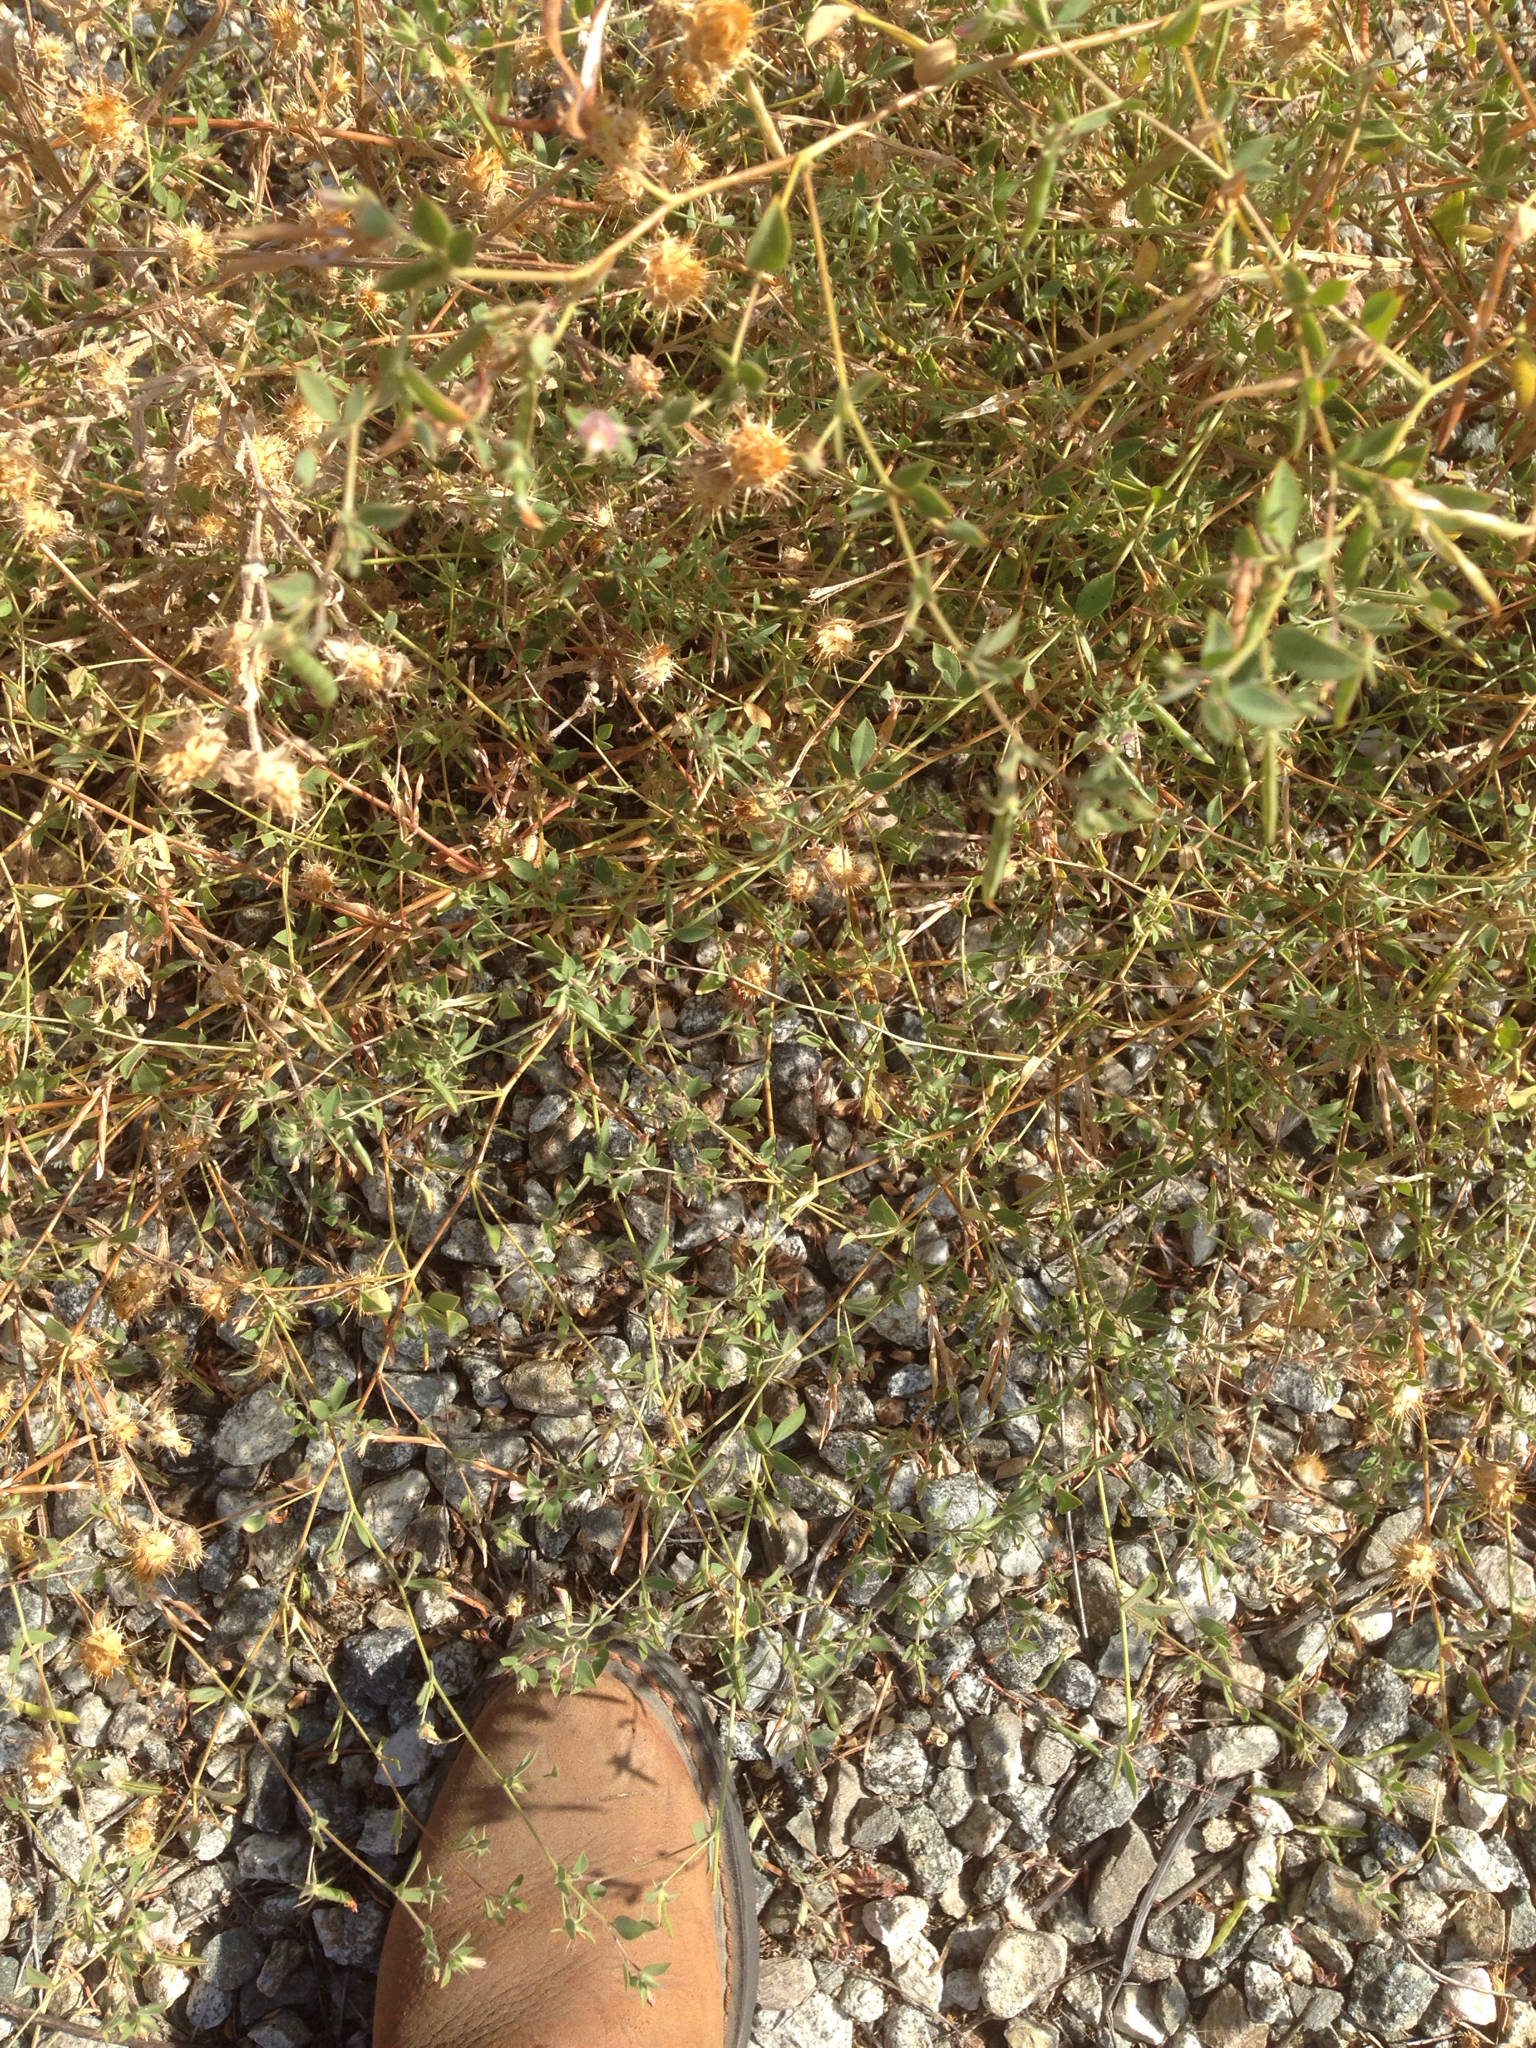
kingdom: Plantae
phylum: Tracheophyta
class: Magnoliopsida
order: Fabales
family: Fabaceae
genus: Acmispon
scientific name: Acmispon americanus
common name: American bird's-foot trefoil
